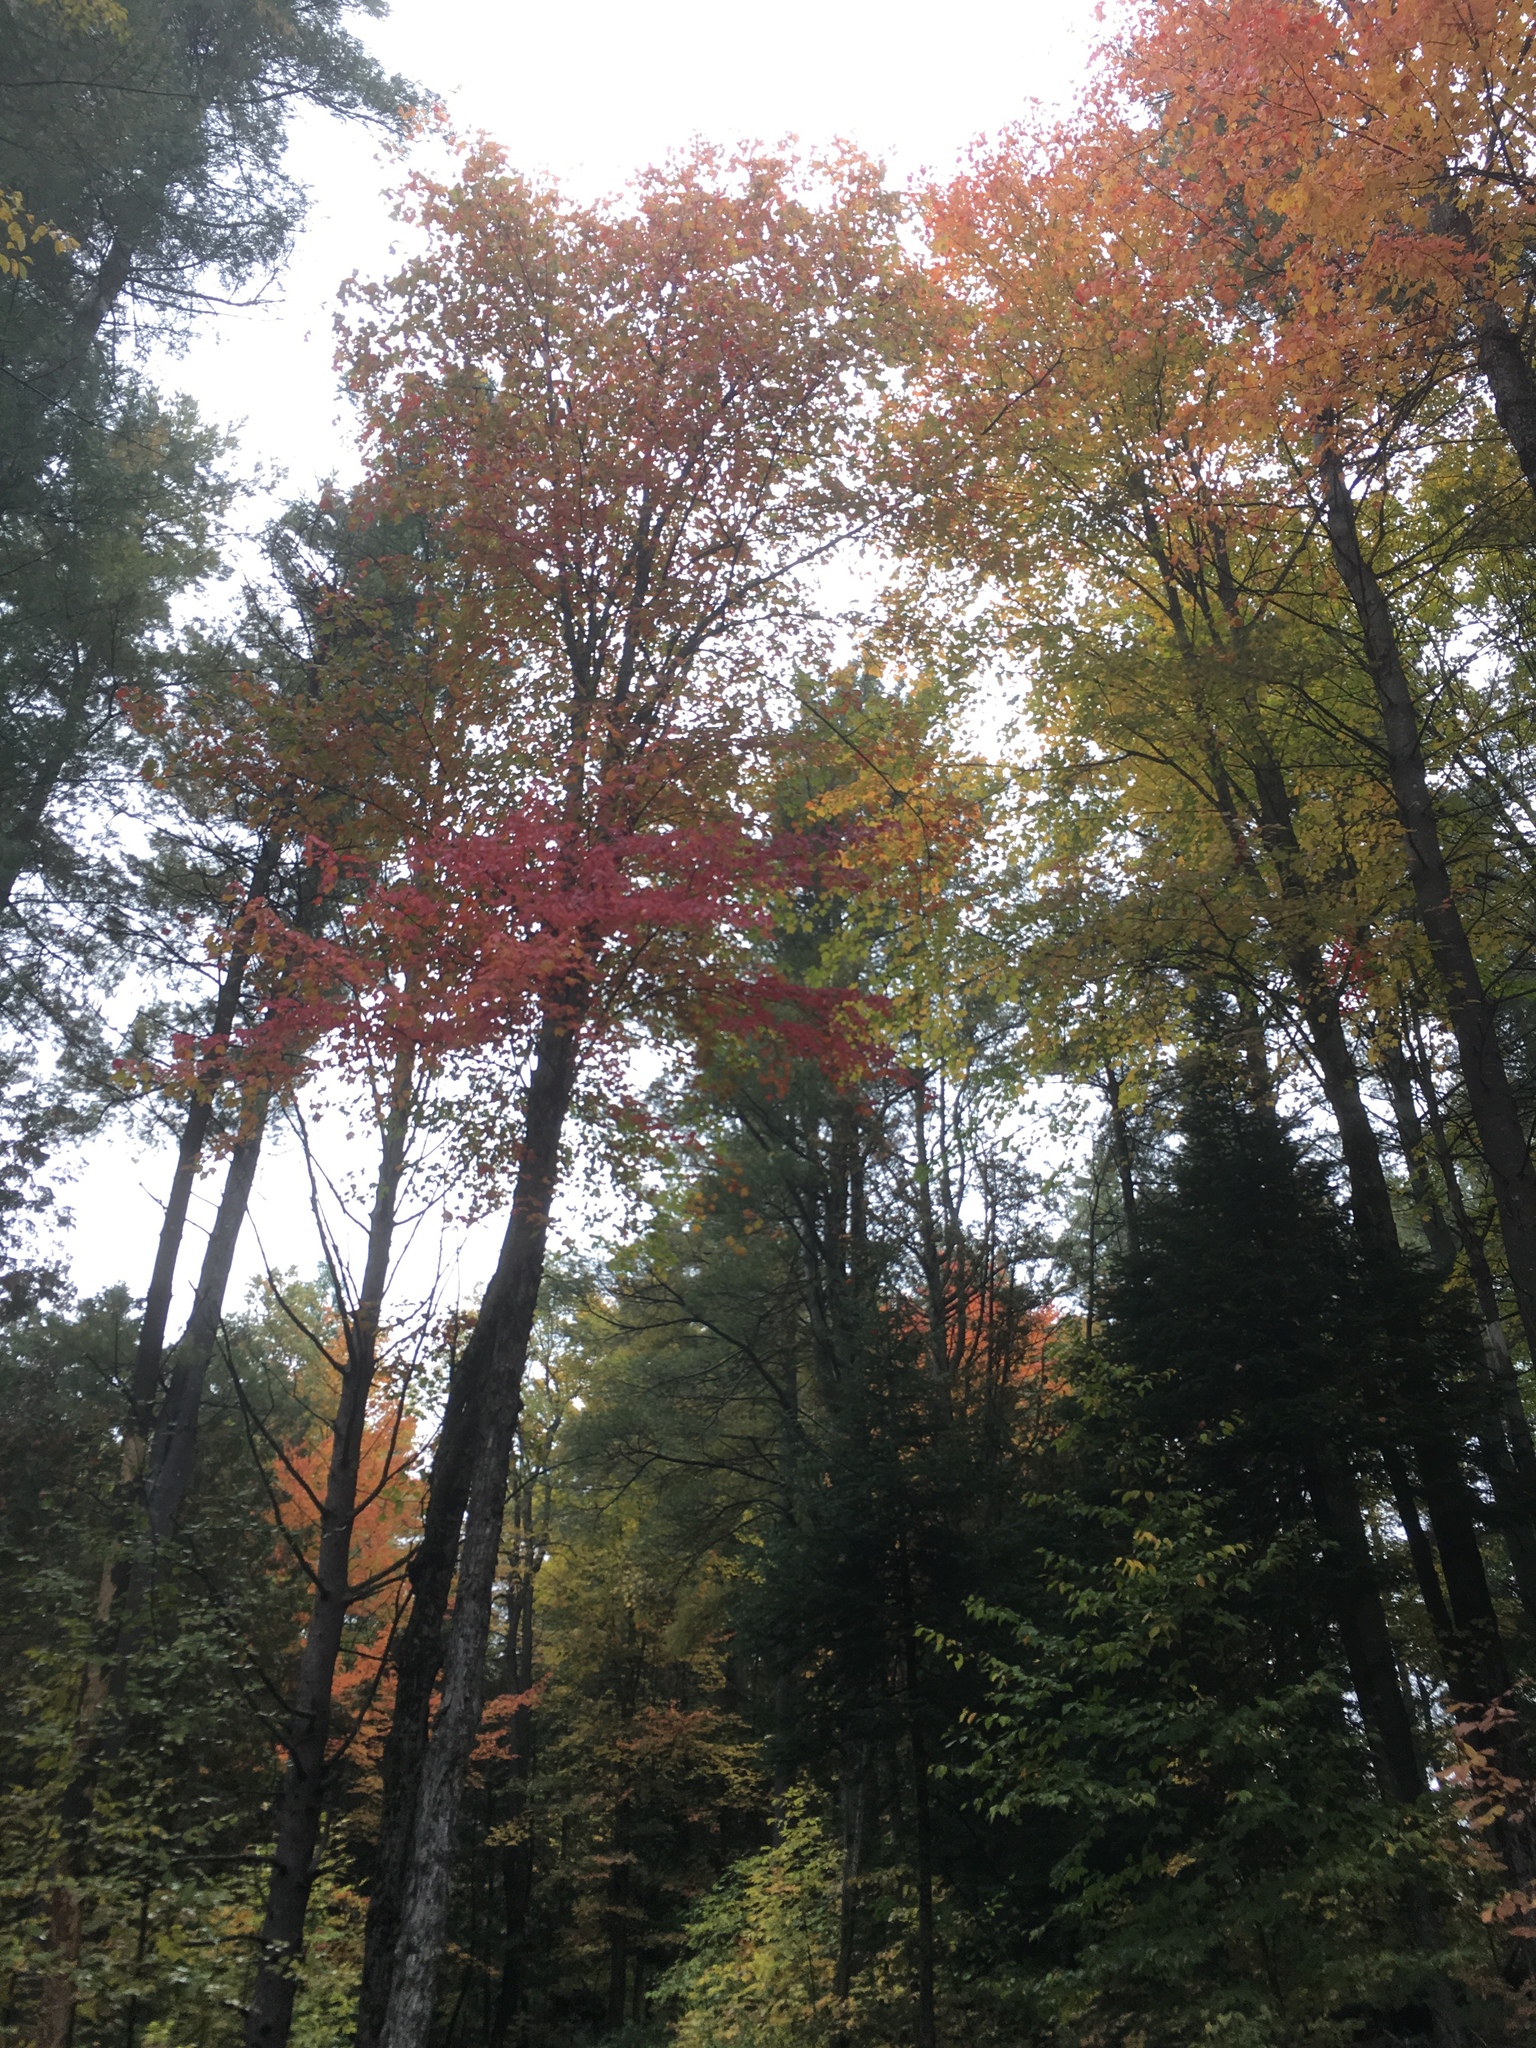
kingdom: Plantae
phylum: Tracheophyta
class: Magnoliopsida
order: Sapindales
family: Sapindaceae
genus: Acer
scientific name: Acer rubrum
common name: Red maple
